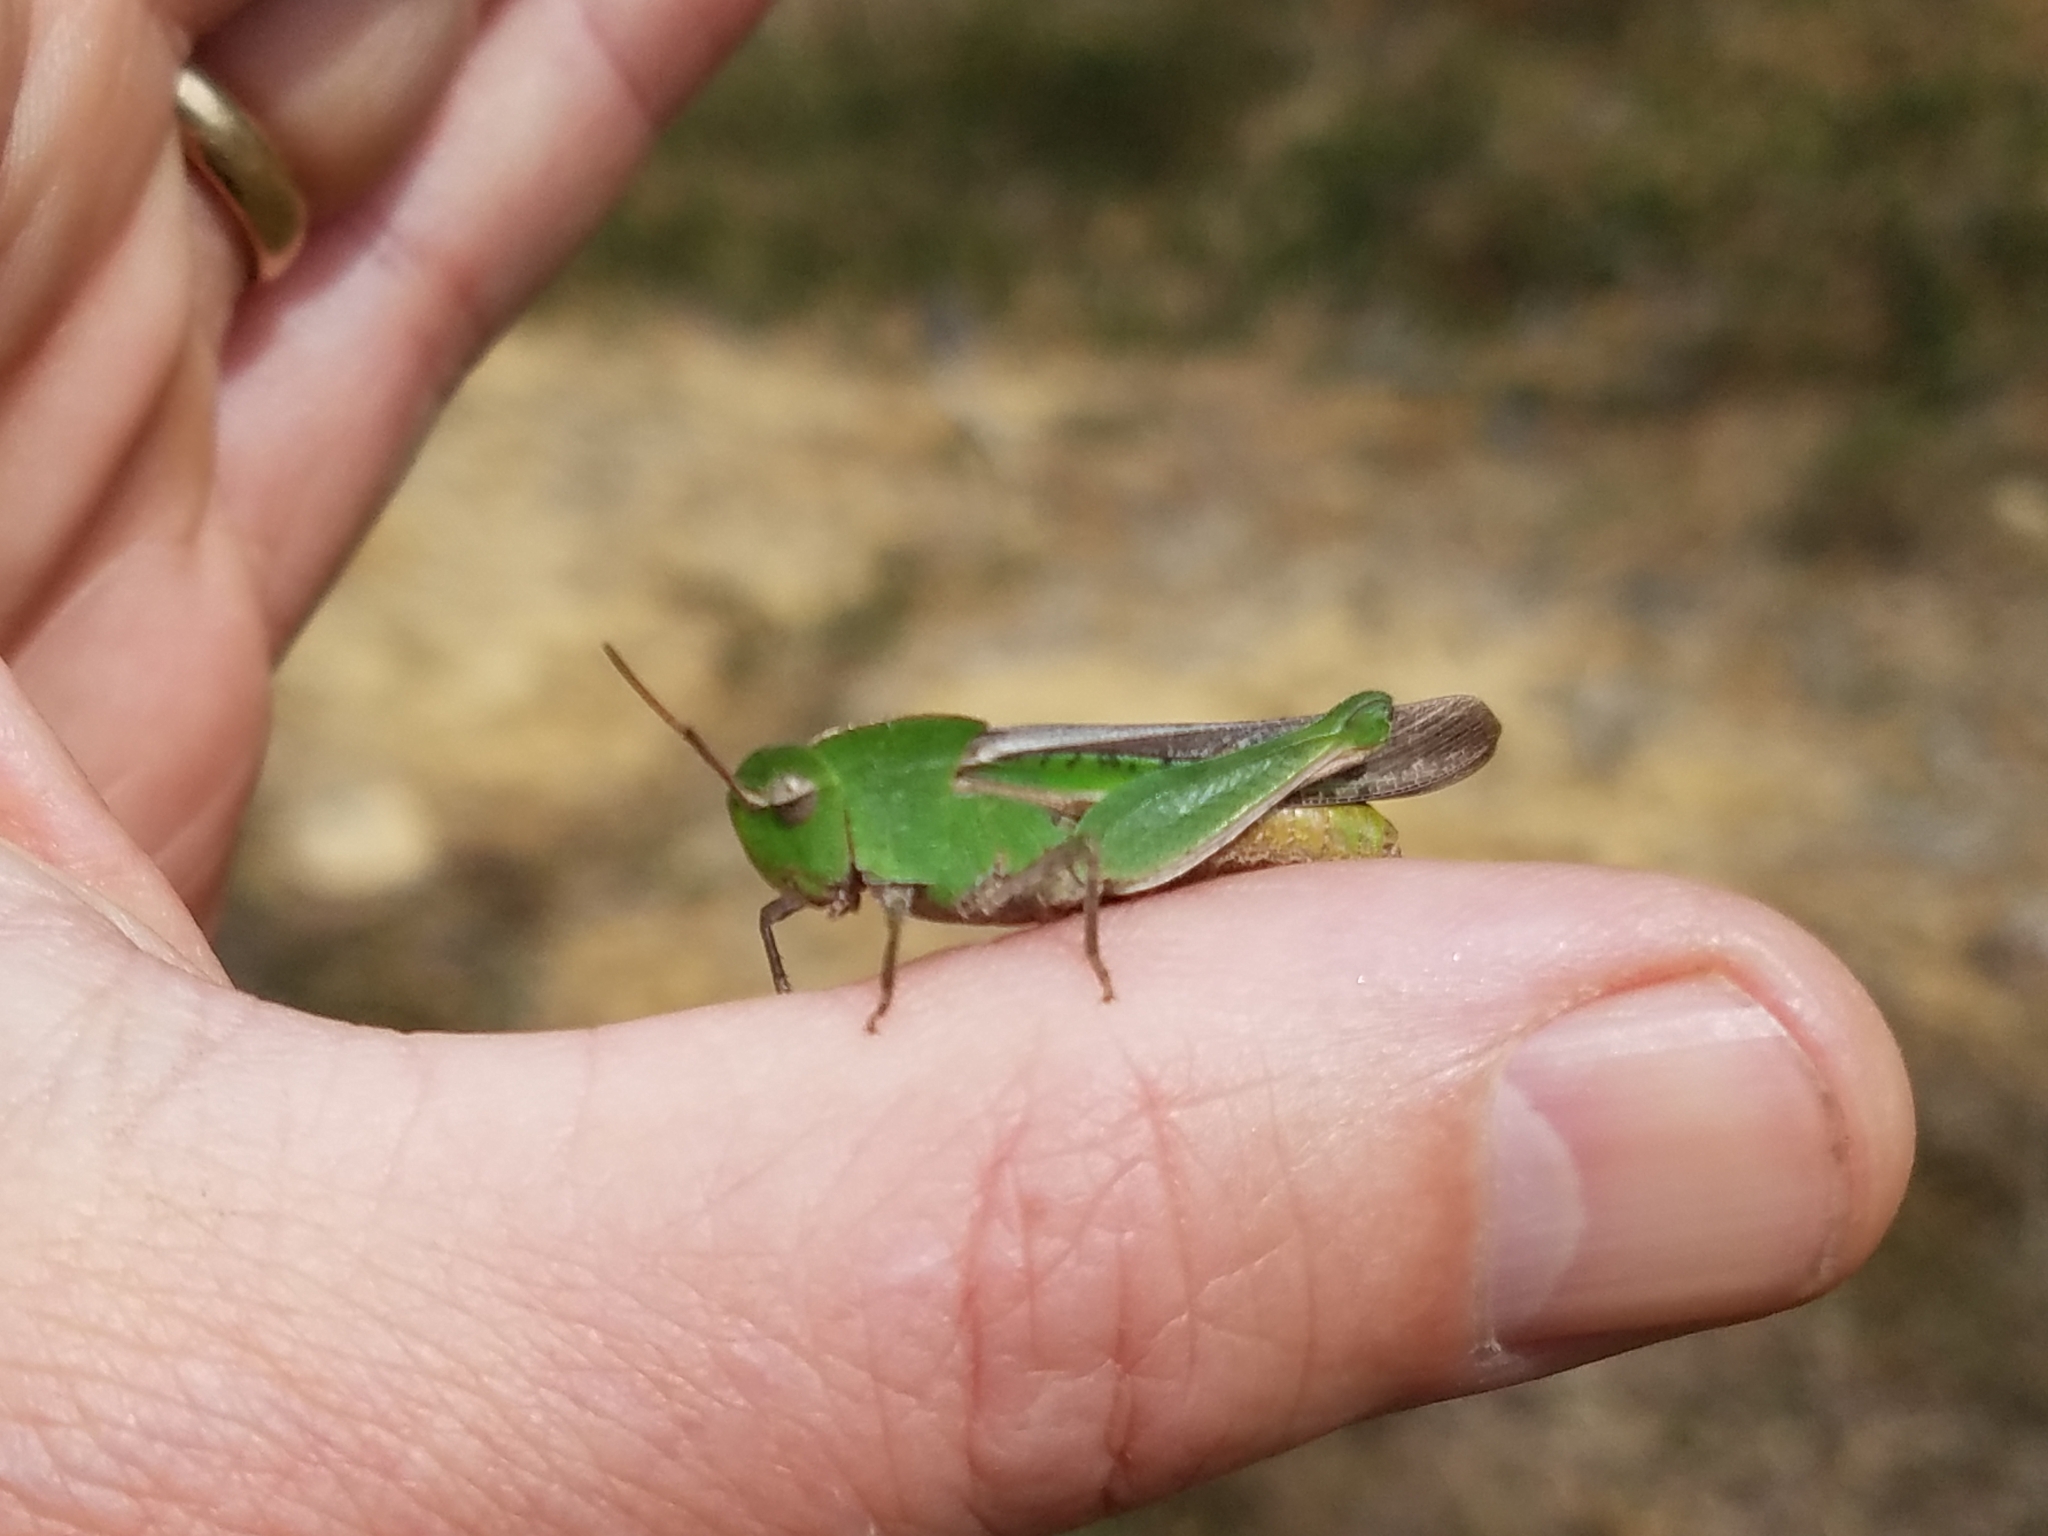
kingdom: Animalia
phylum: Arthropoda
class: Insecta
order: Orthoptera
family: Acrididae
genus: Chortophaga
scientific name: Chortophaga viridifasciata
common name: Green-striped grasshopper
